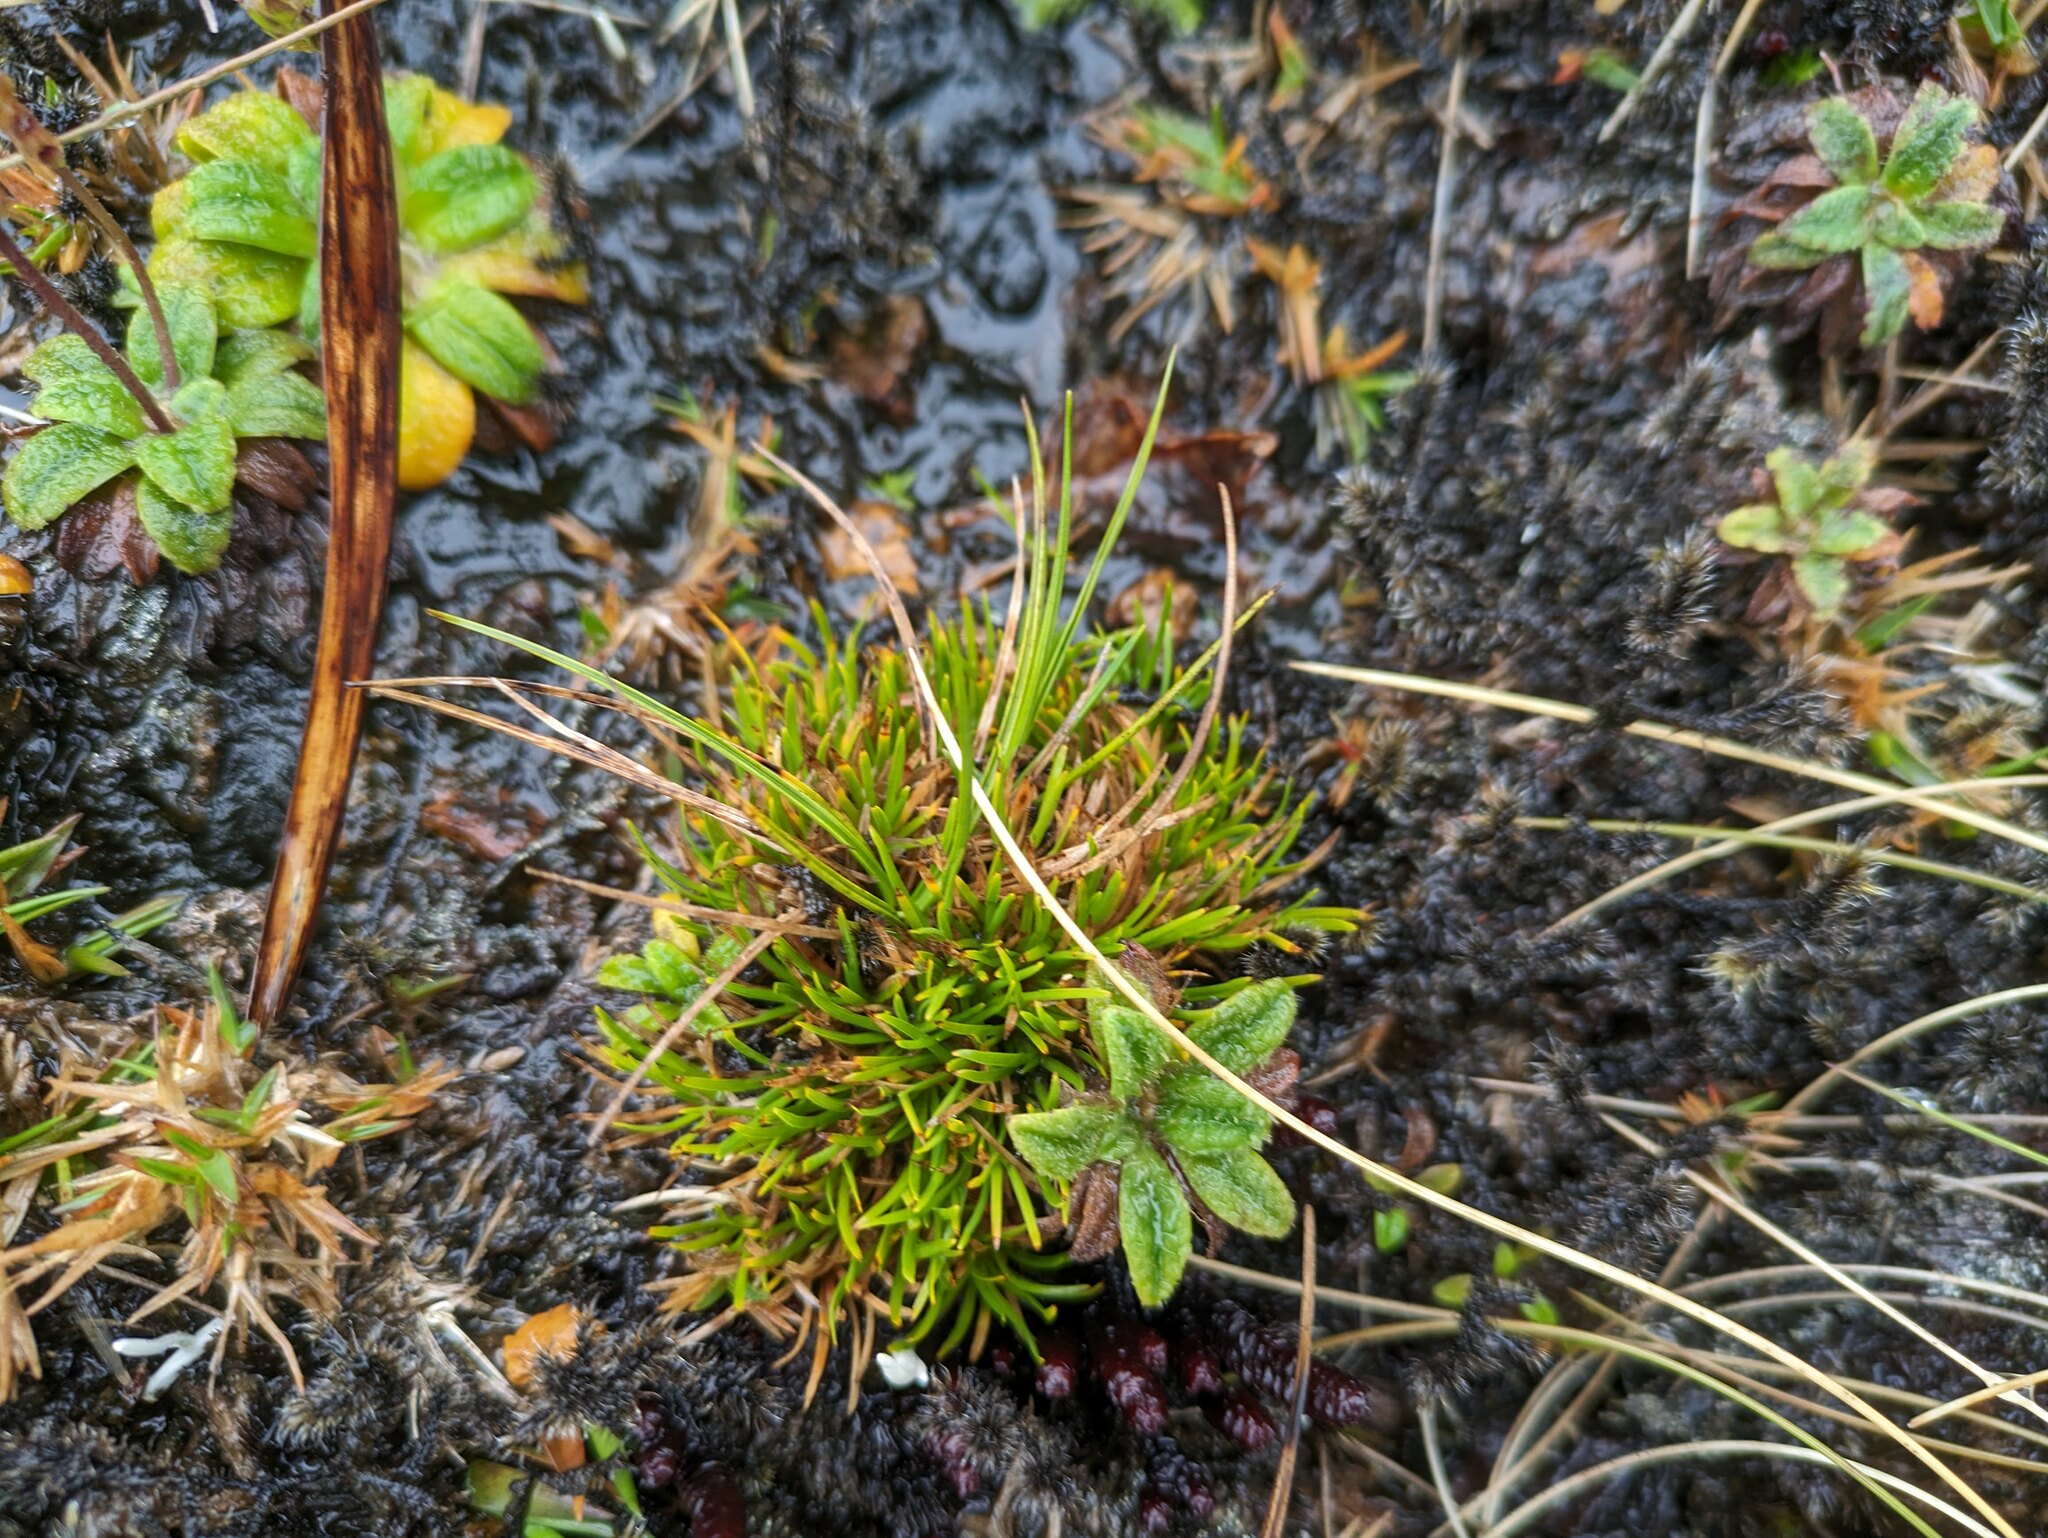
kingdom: Plantae
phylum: Tracheophyta
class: Liliopsida
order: Poales
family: Cyperaceae
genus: Oreobolus
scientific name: Oreobolus furcatus
